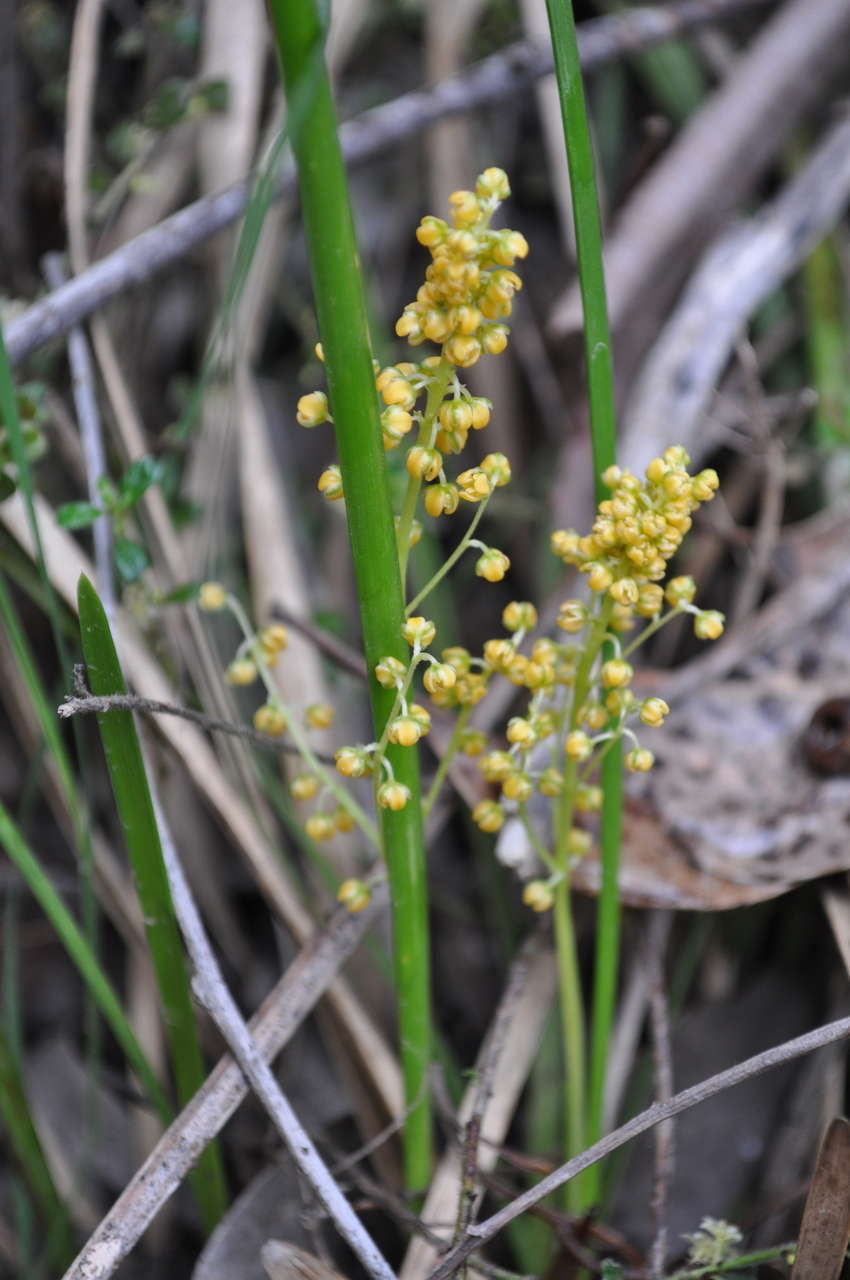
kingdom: Plantae
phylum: Tracheophyta
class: Liliopsida
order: Asparagales
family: Asparagaceae
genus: Lomandra
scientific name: Lomandra filiformis
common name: Wattle mat-rush
